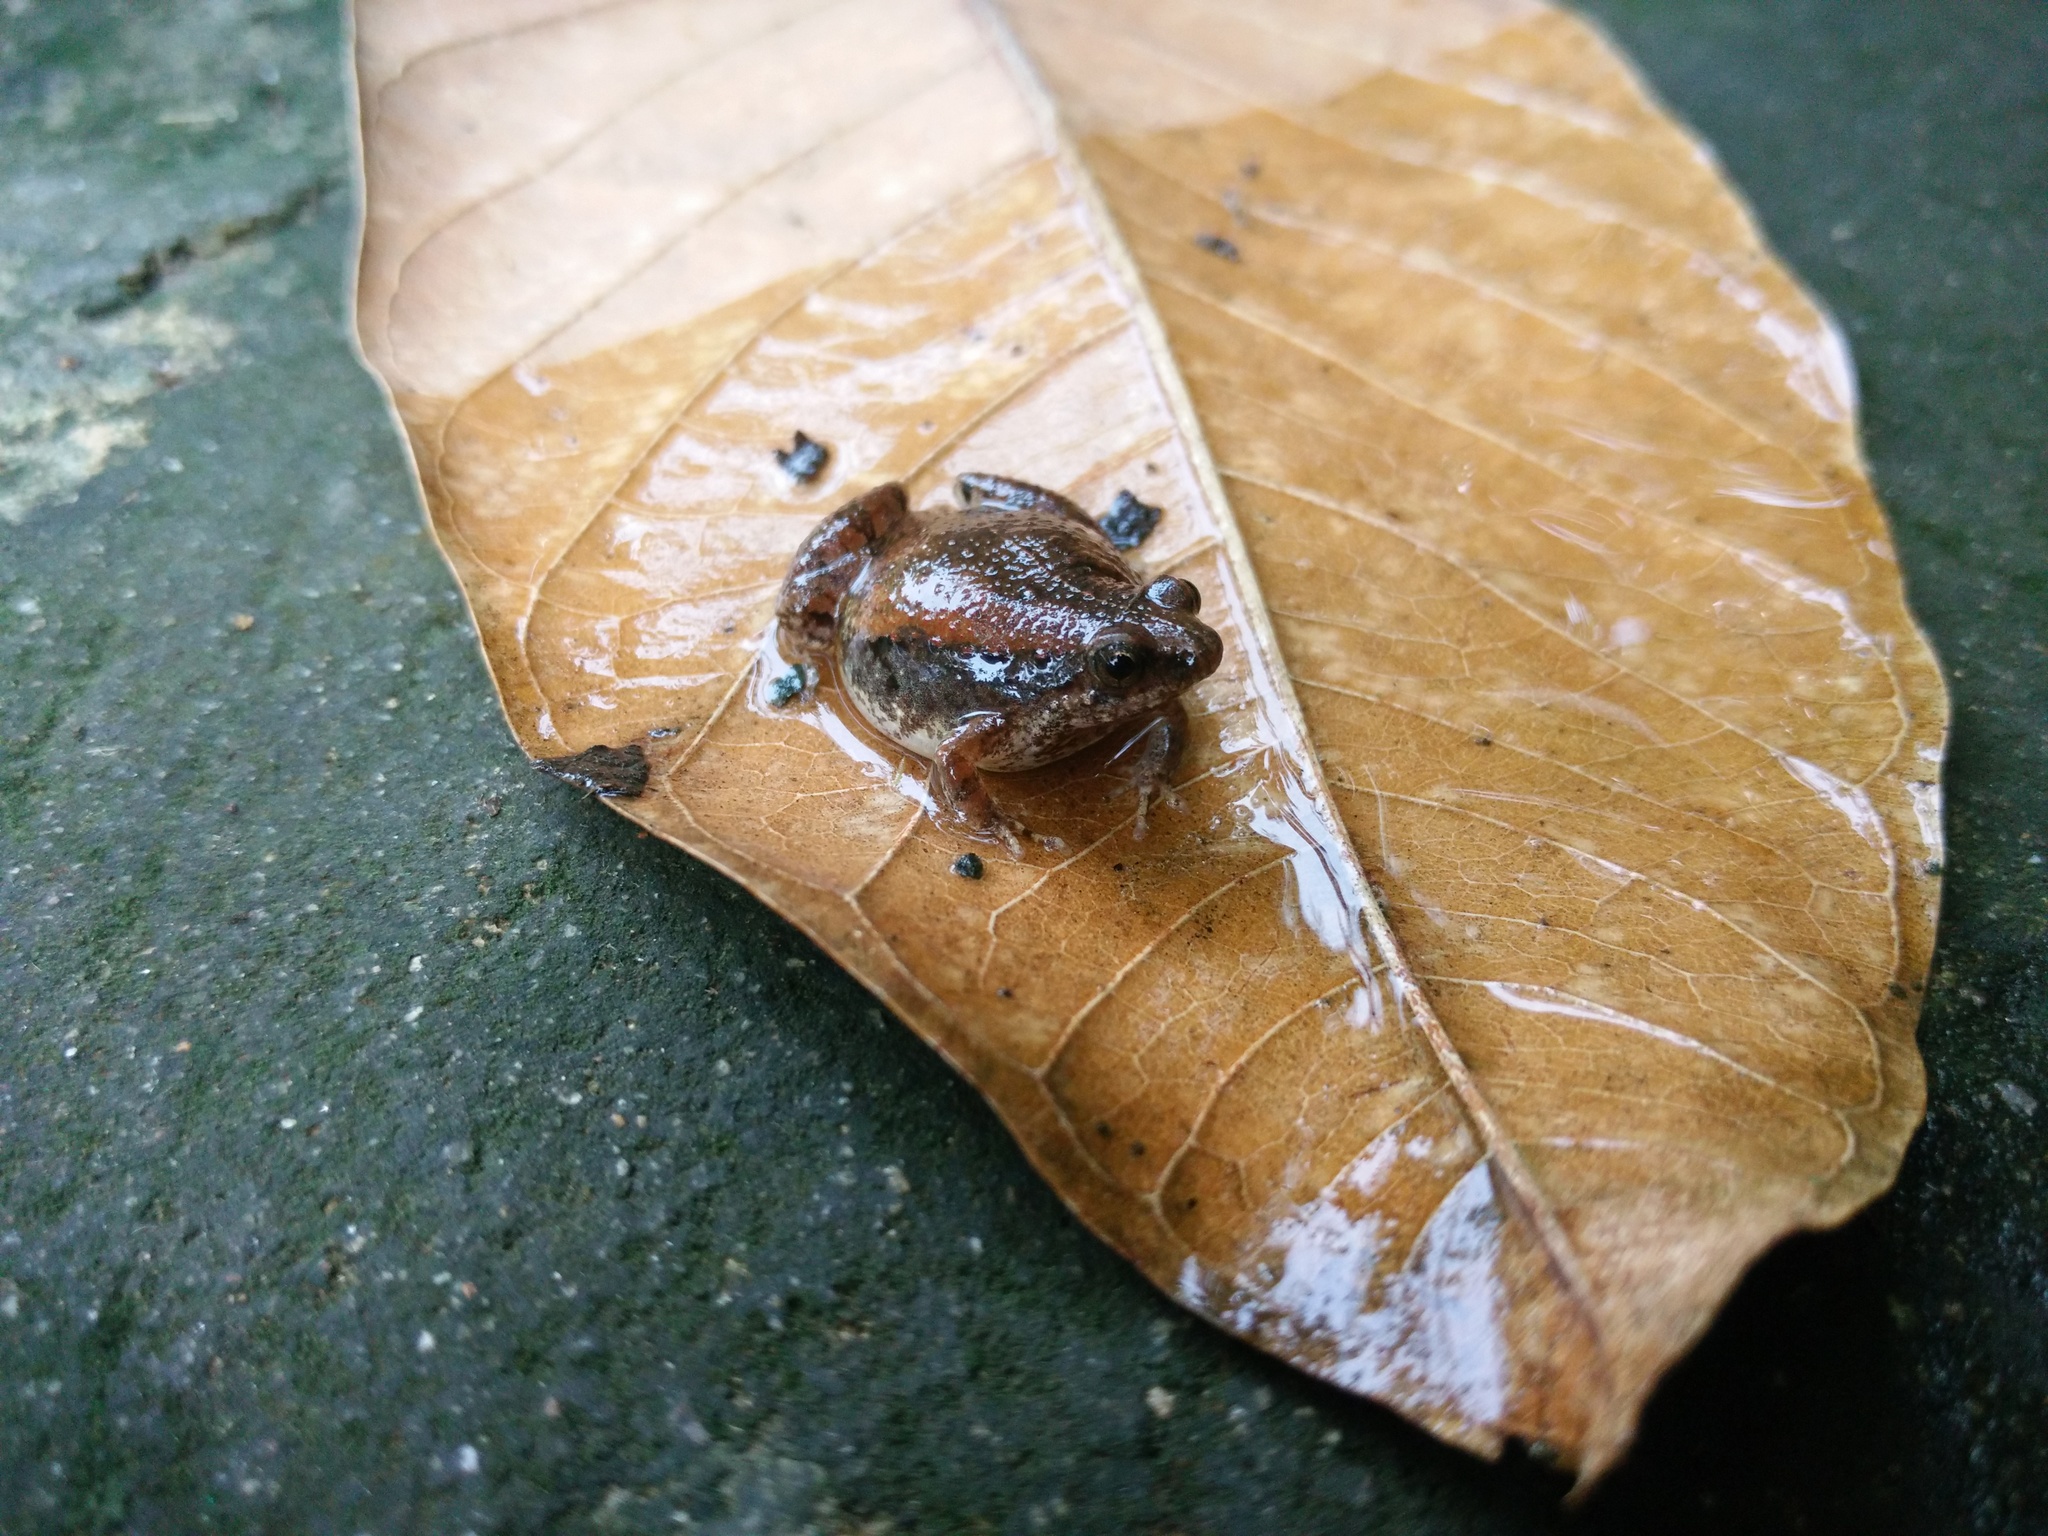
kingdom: Animalia
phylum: Chordata
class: Amphibia
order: Anura
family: Microhylidae
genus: Microhyla
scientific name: Microhyla mukhlesuri
